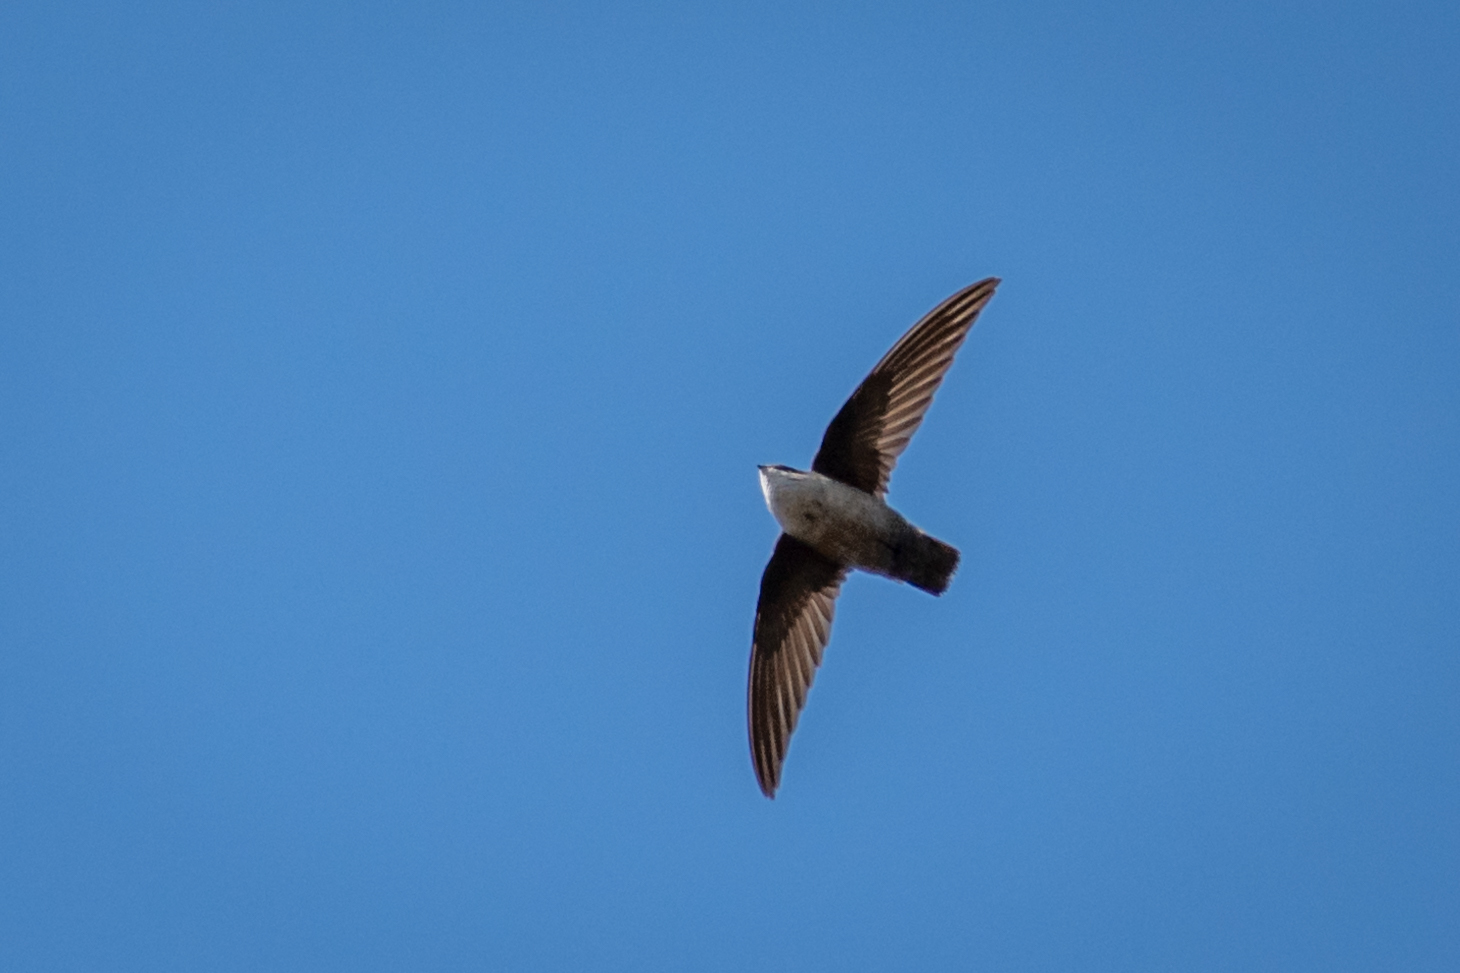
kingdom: Animalia
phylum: Chordata
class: Aves
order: Apodiformes
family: Apodidae
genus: Chaetura
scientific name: Chaetura vauxi
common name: Vaux's swift
